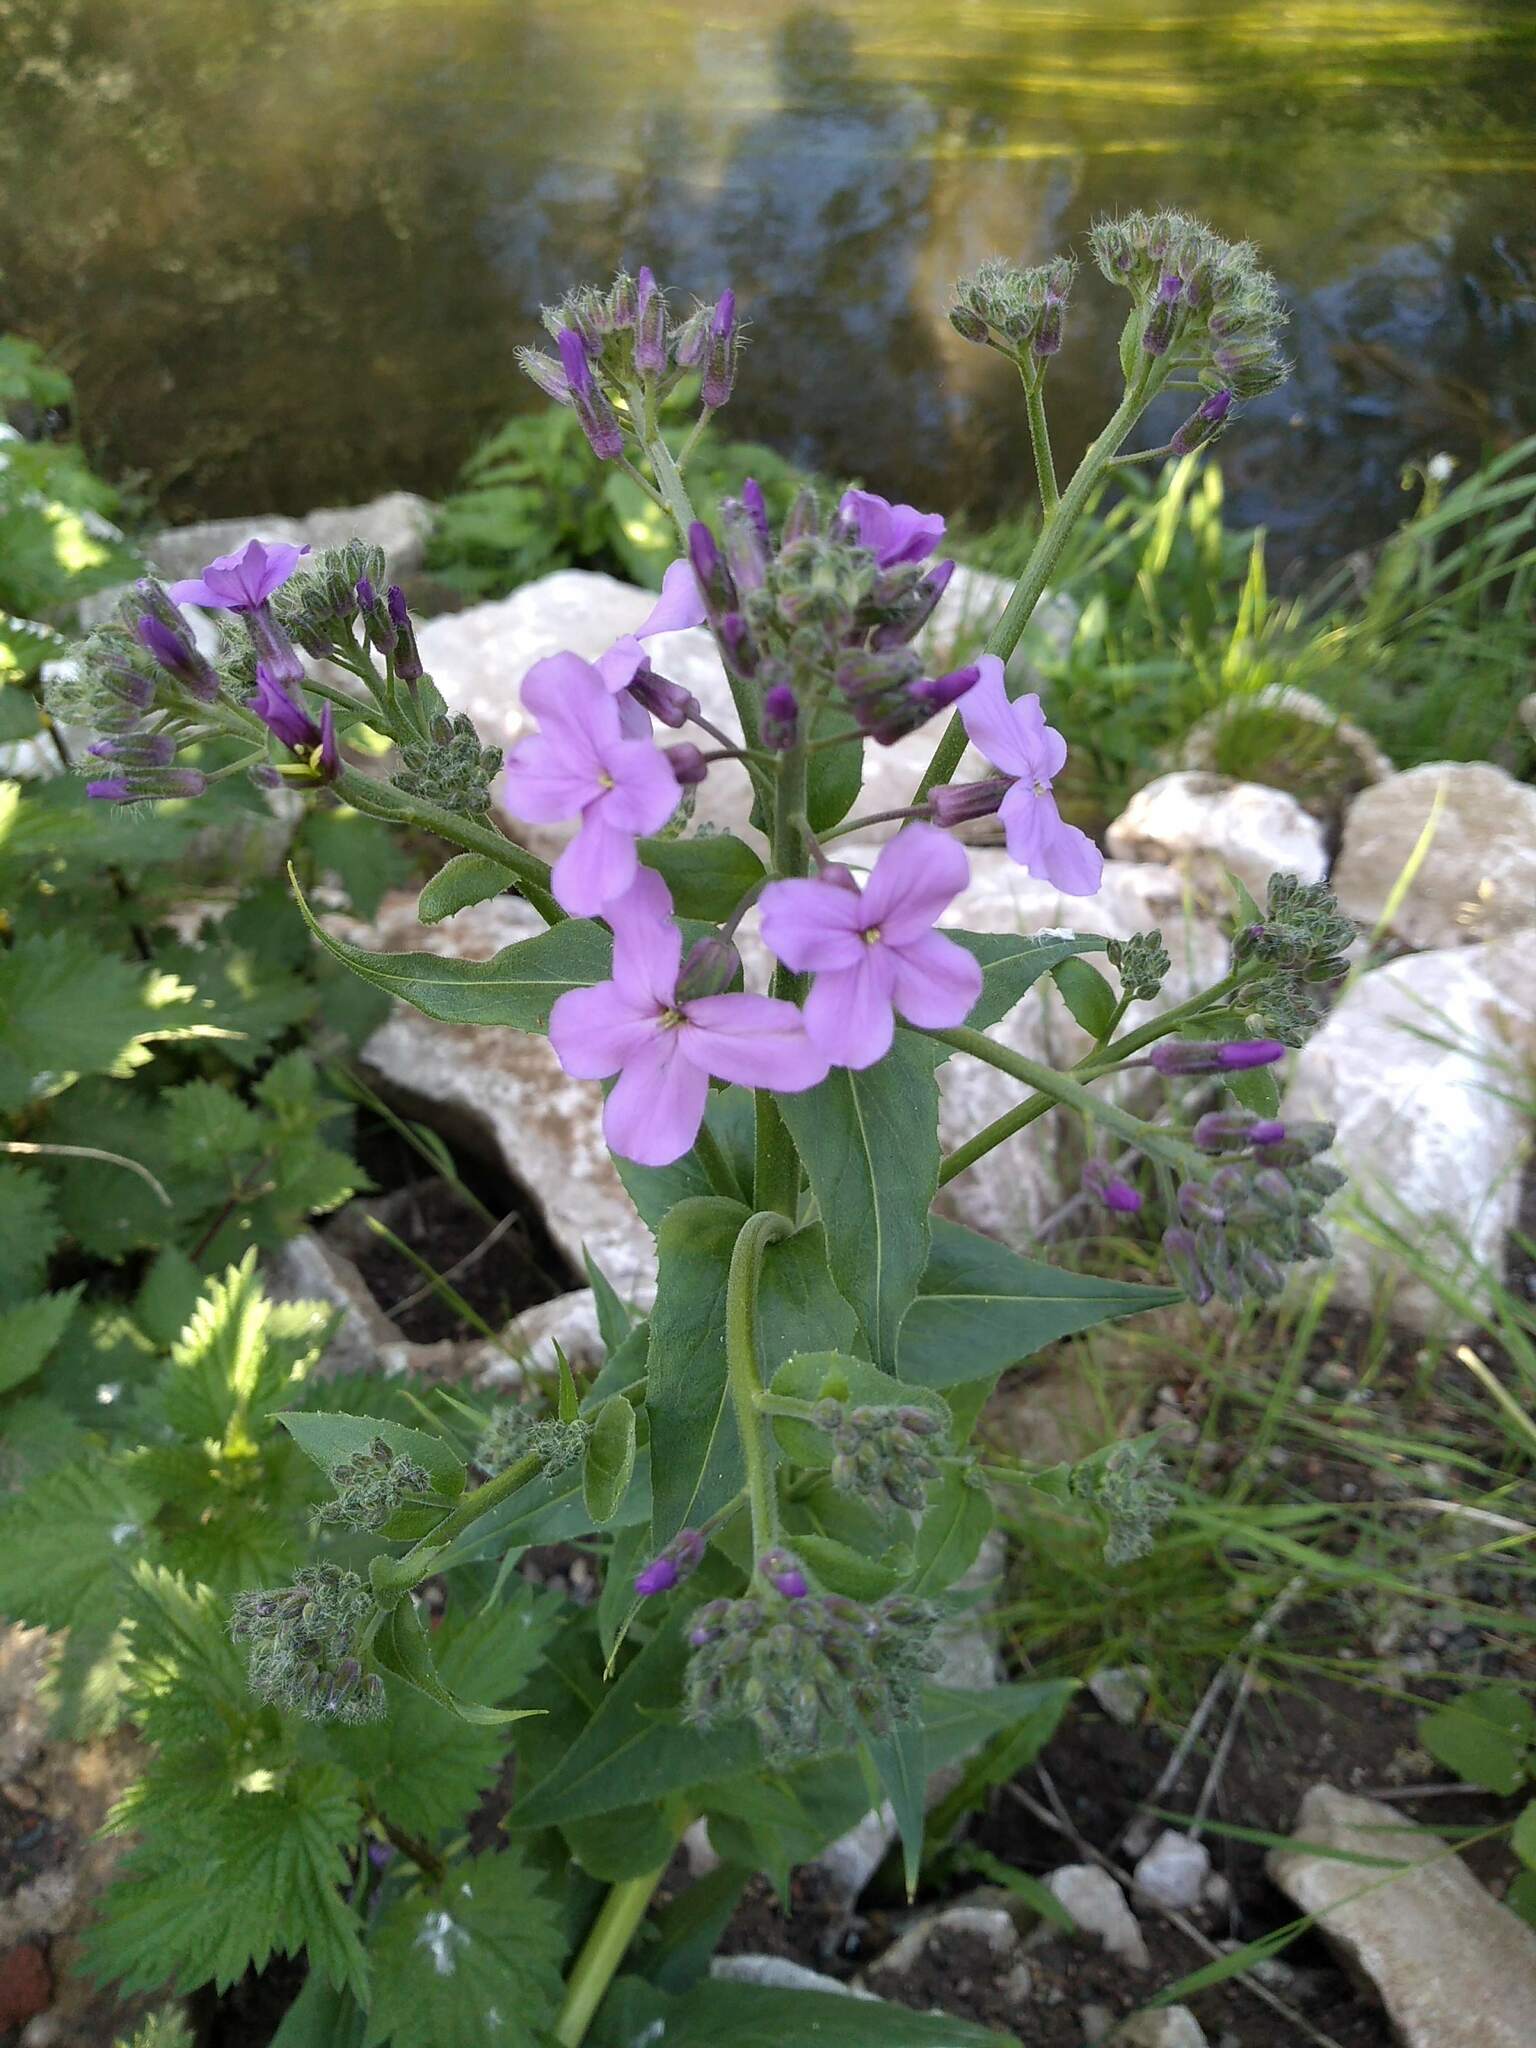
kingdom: Plantae
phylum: Tracheophyta
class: Magnoliopsida
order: Brassicales
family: Brassicaceae
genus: Hesperis
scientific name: Hesperis matronalis
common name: Dame's-violet
